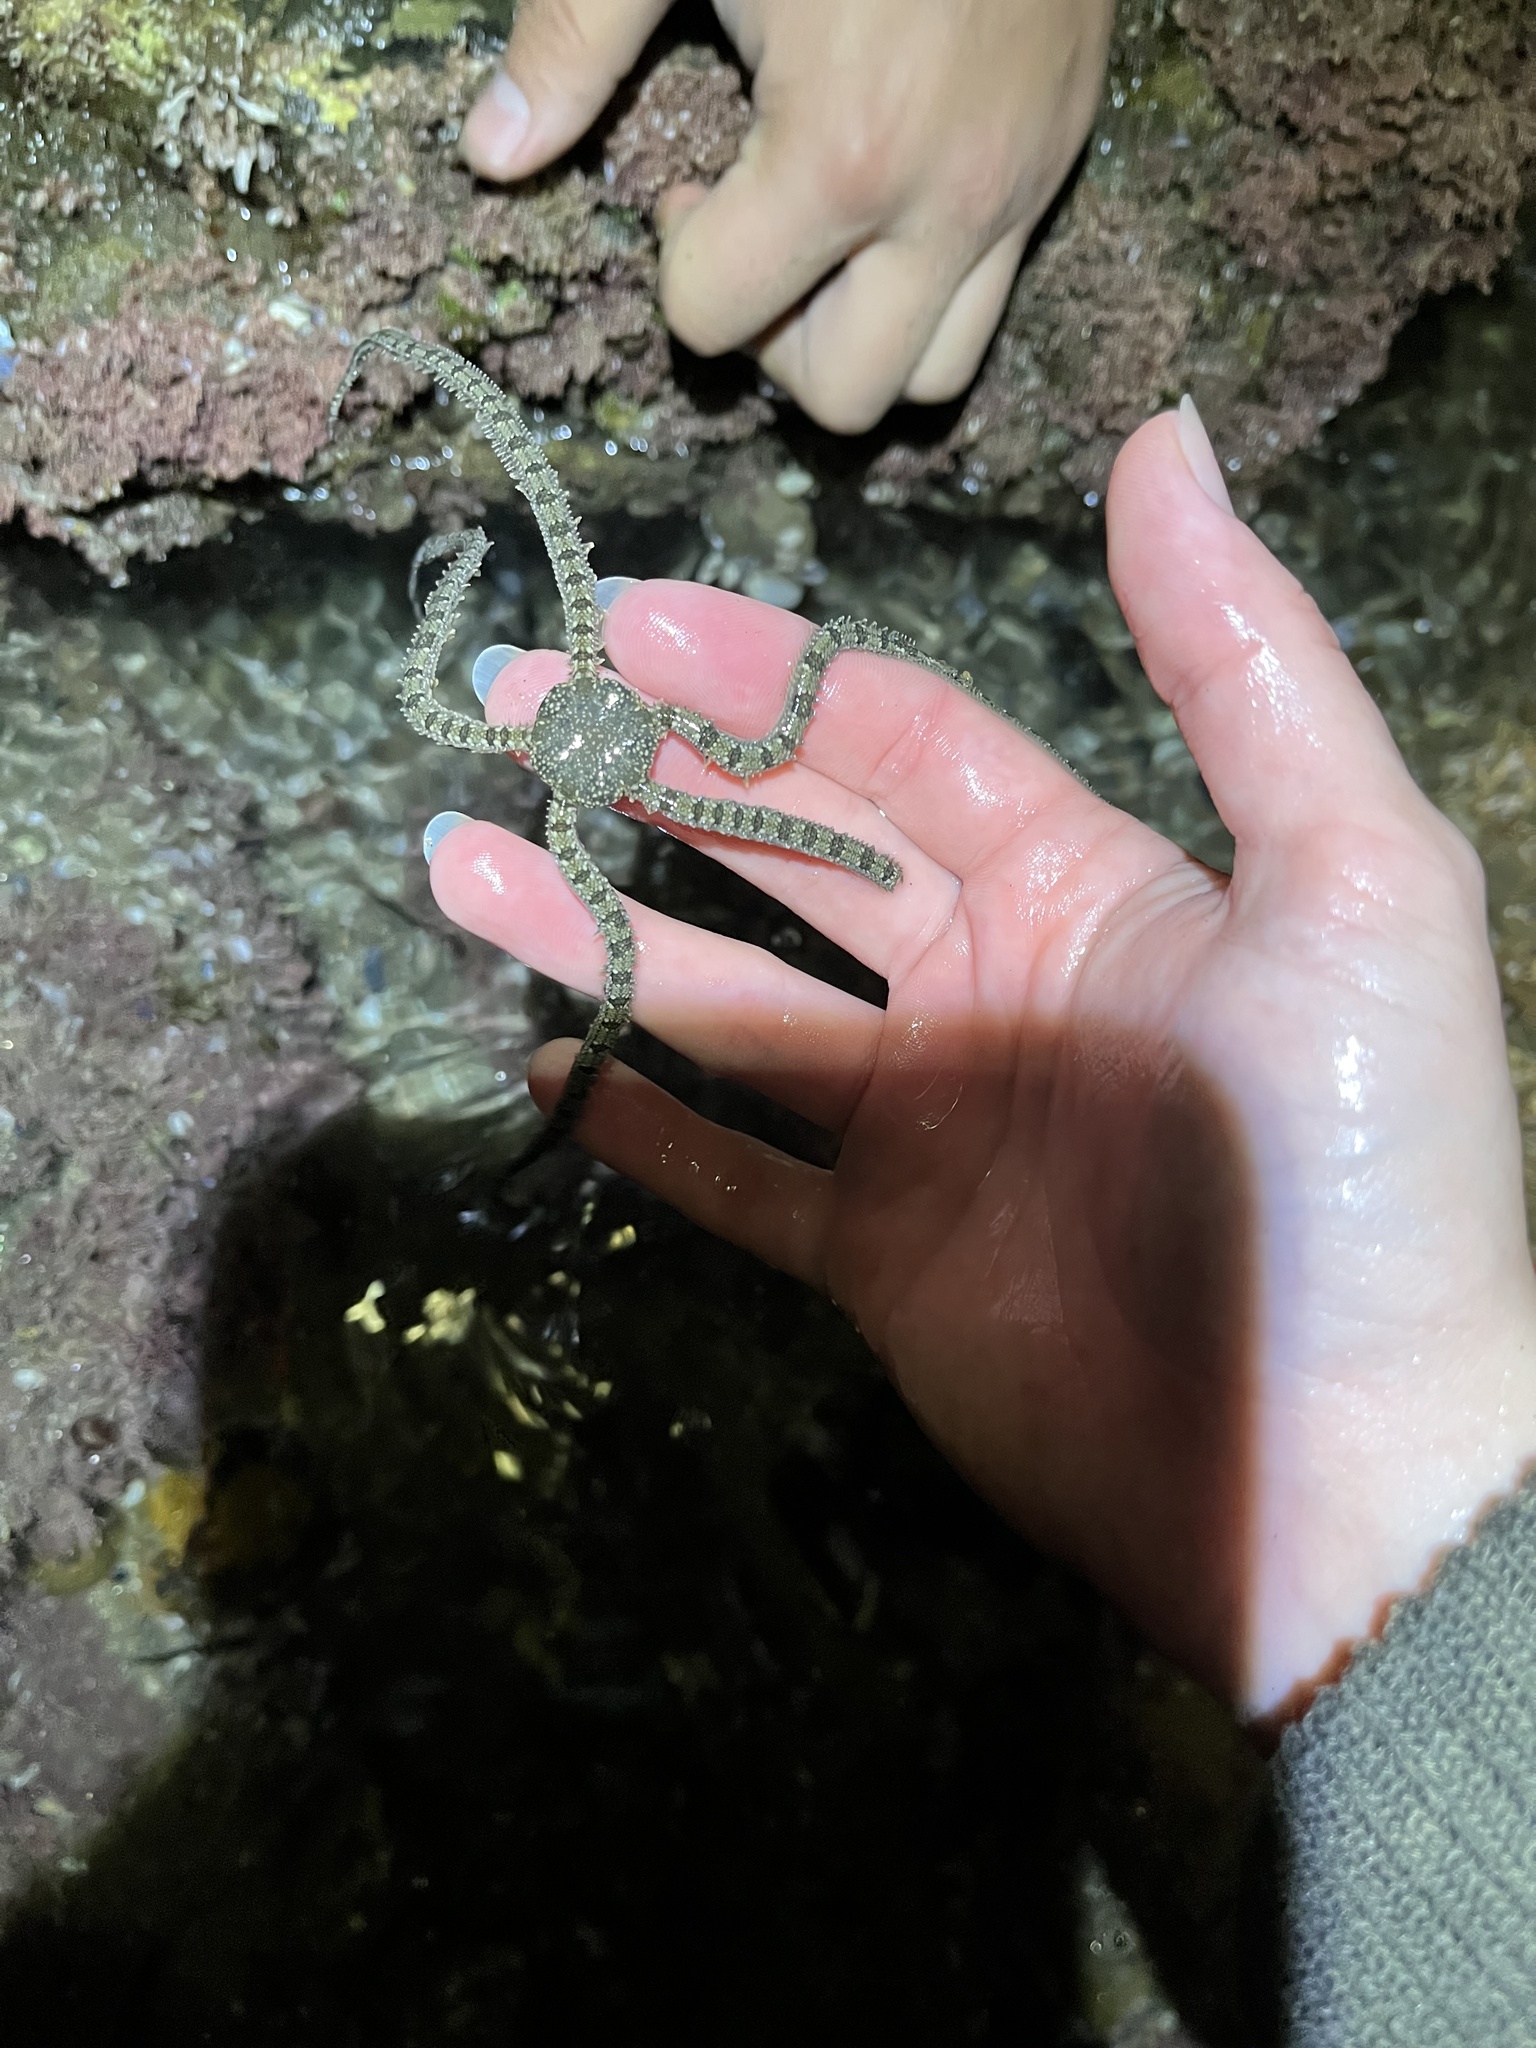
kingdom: Animalia
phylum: Echinodermata
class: Ophiuroidea
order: Amphilepidida
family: Ophionereididae
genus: Ophionereis
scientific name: Ophionereis annulata
